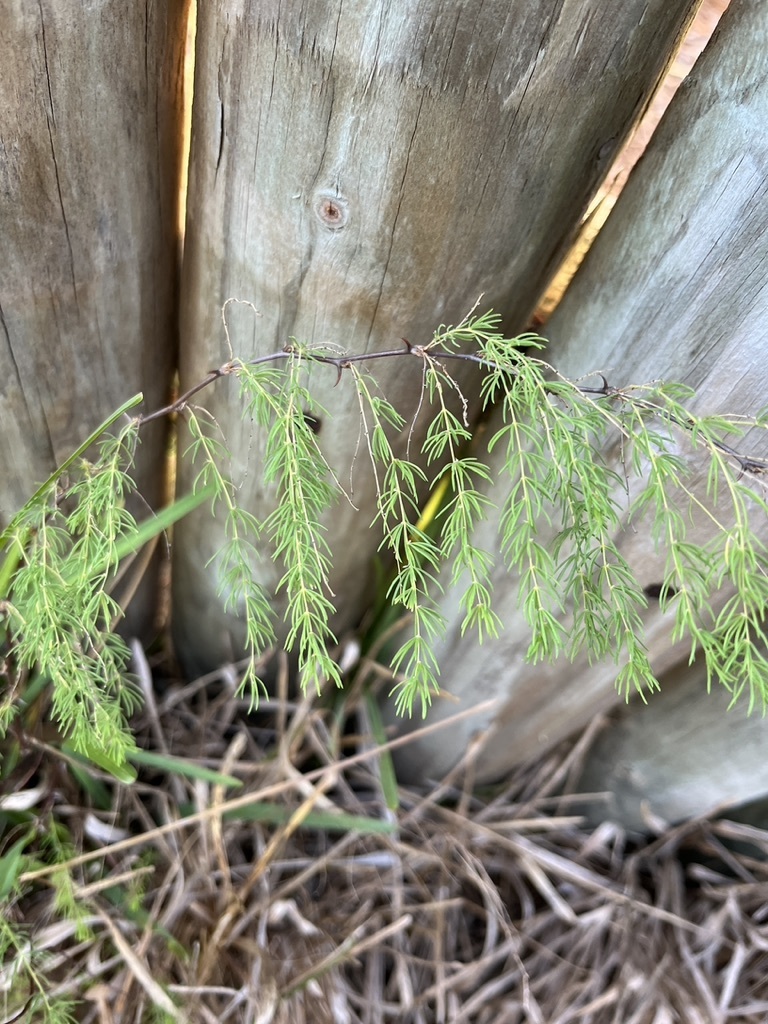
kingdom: Plantae
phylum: Tracheophyta
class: Liliopsida
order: Asparagales
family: Asparagaceae
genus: Asparagus
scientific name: Asparagus rubicundus
